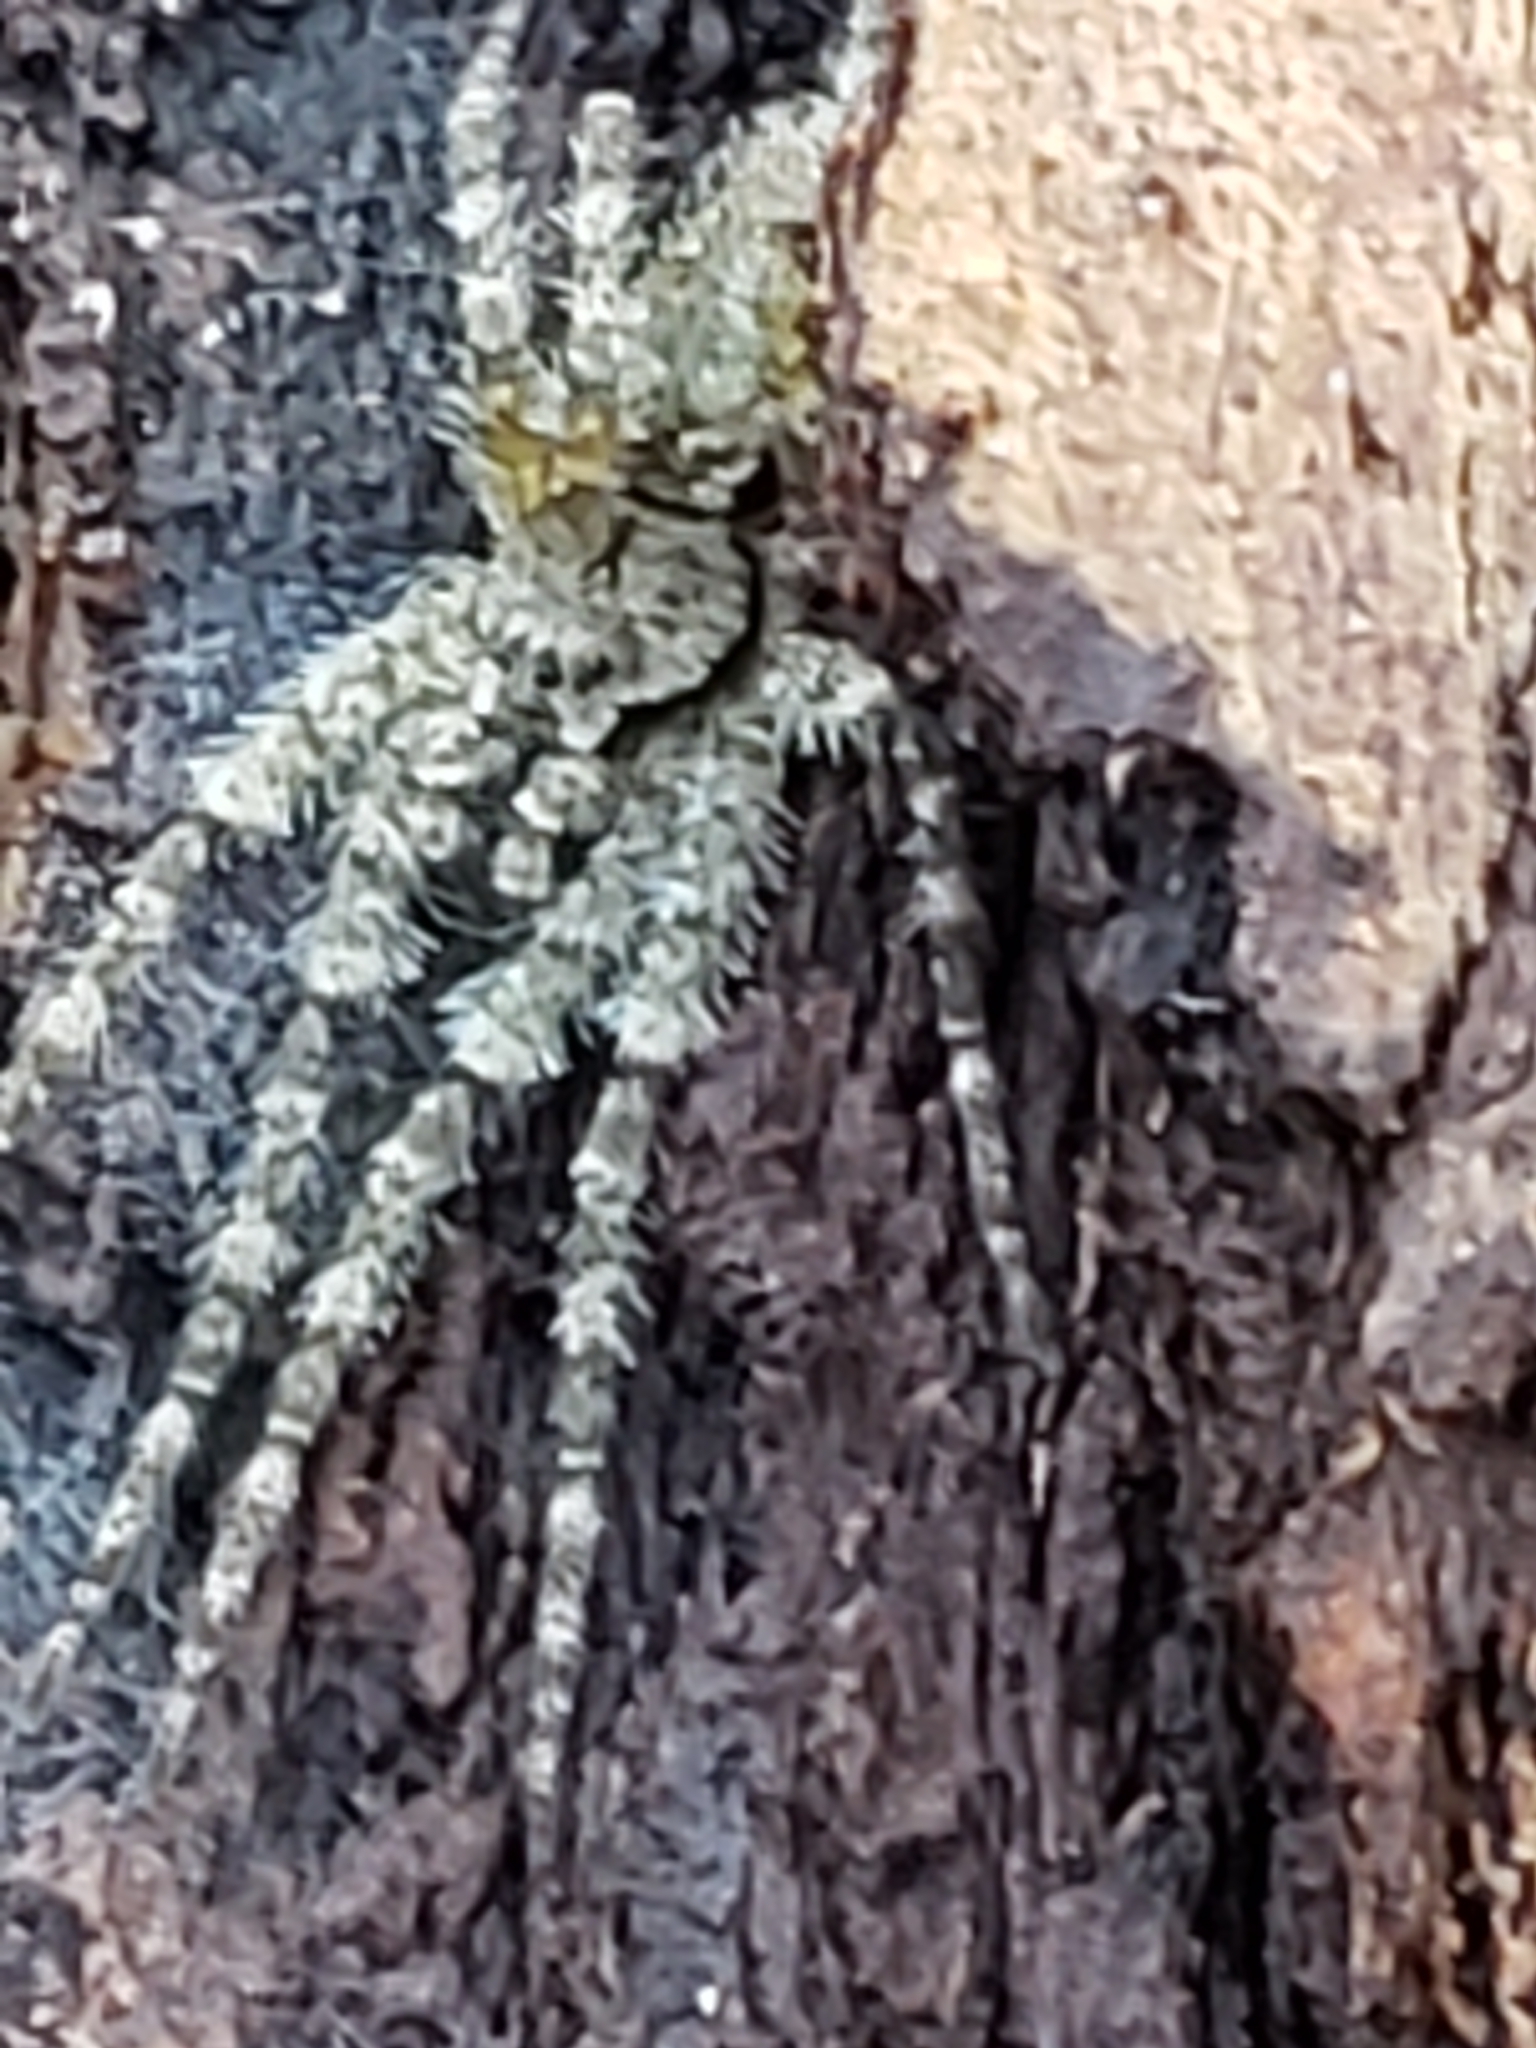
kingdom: Animalia
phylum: Arthropoda
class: Arachnida
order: Araneae
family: Pisauridae
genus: Dolomedes
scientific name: Dolomedes albineus
